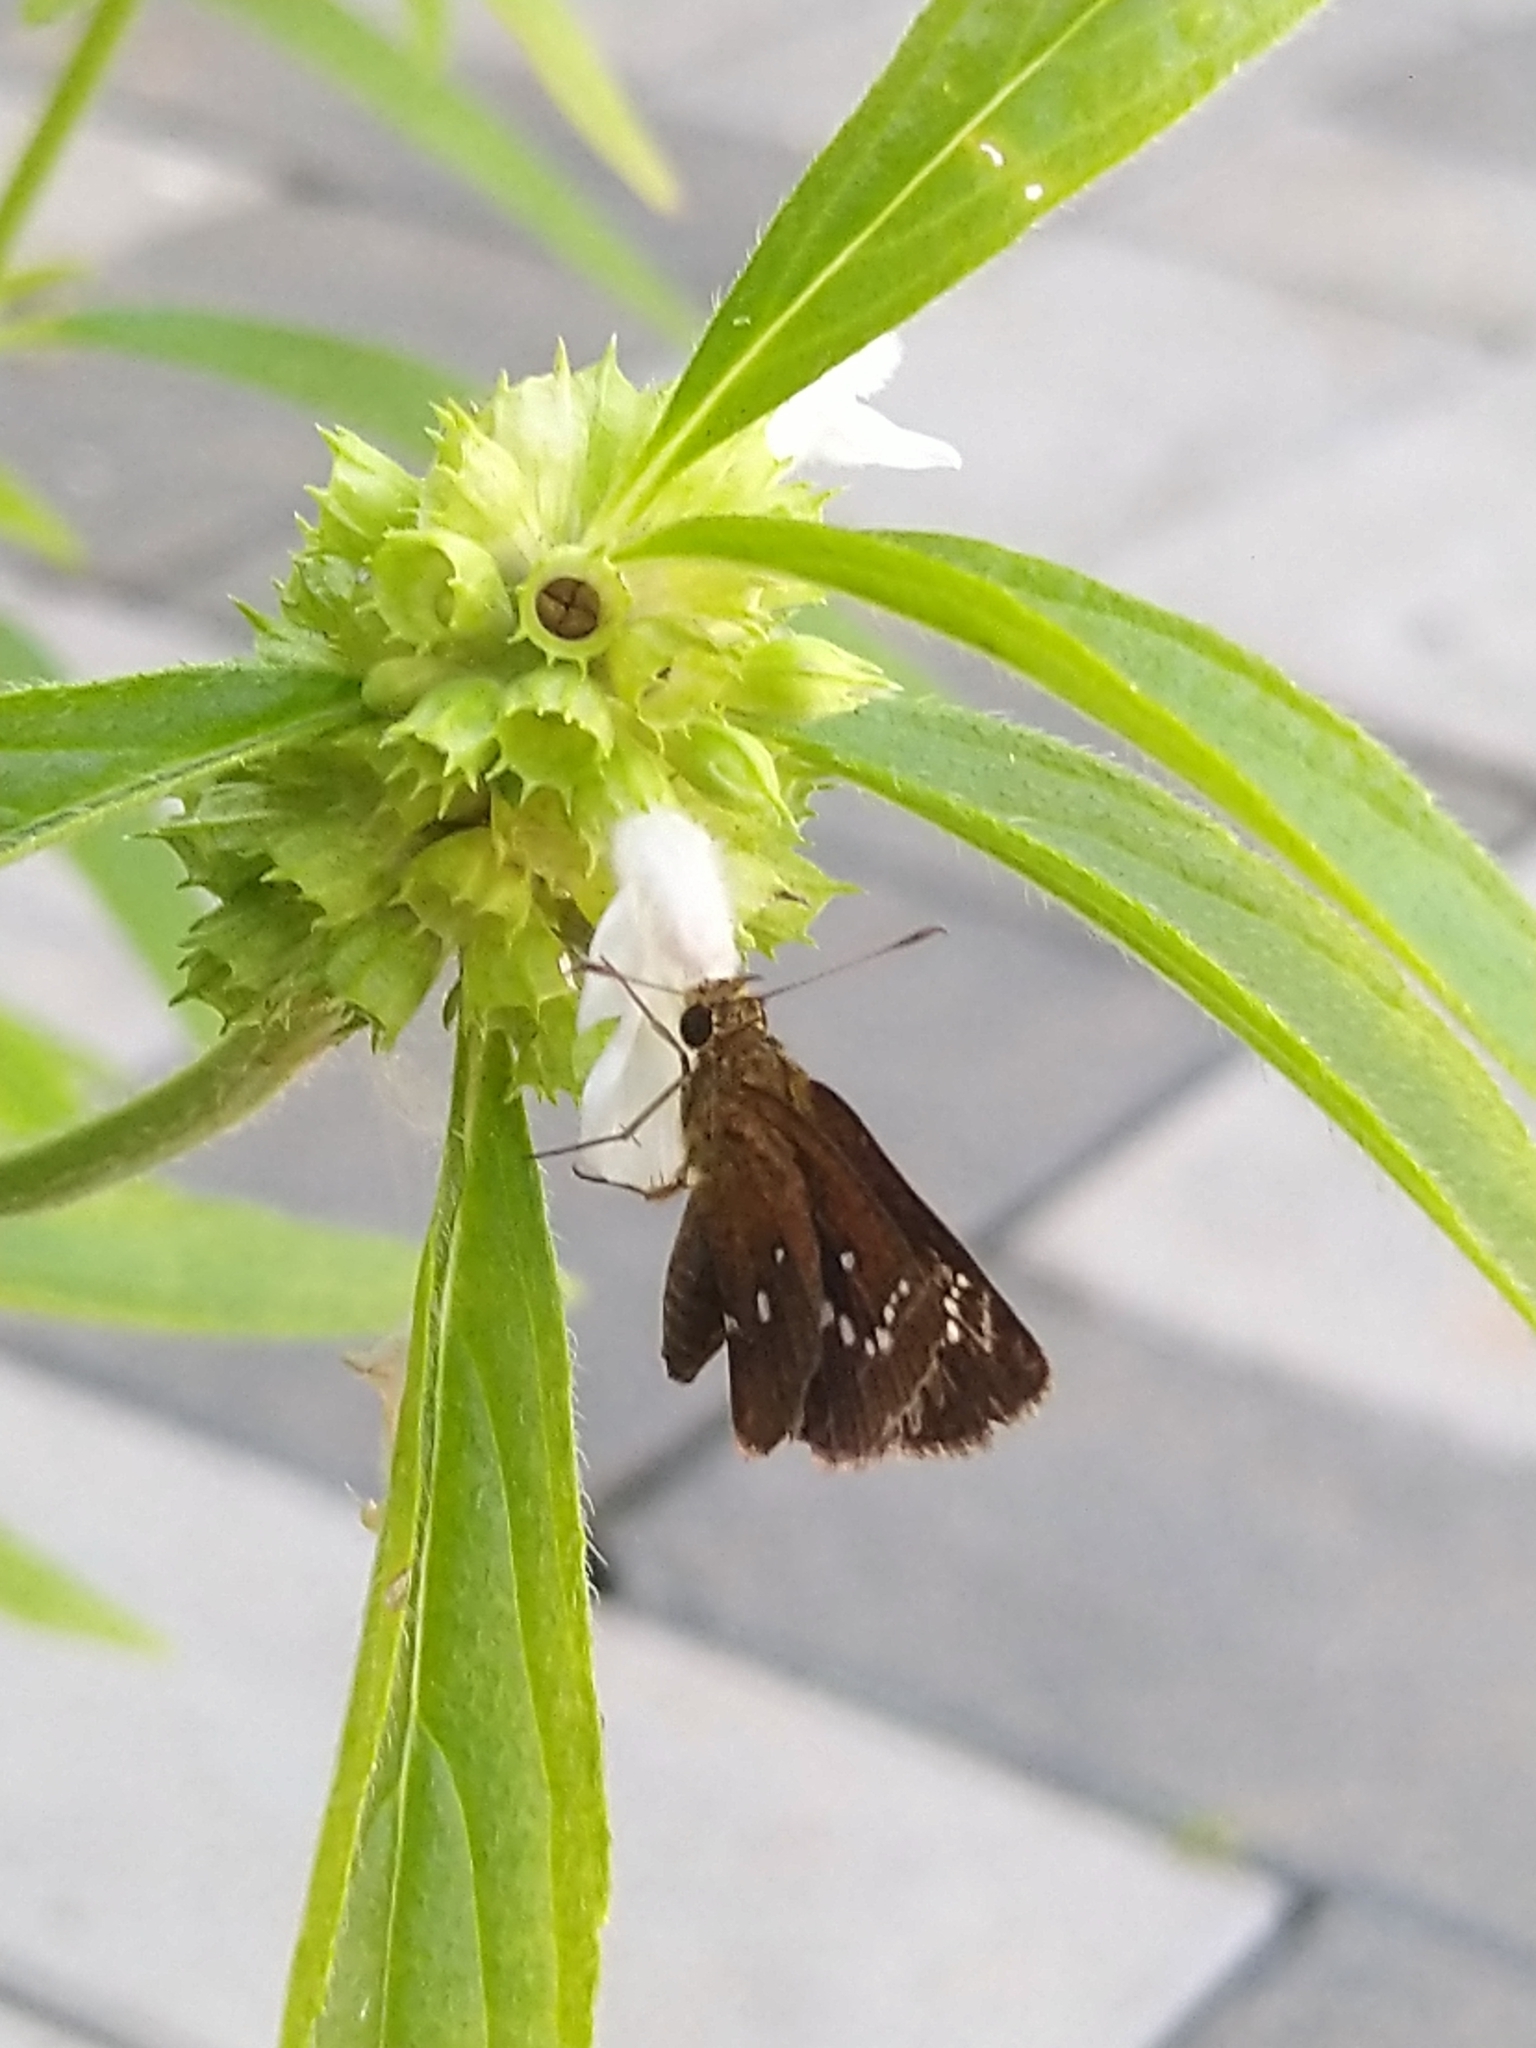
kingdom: Animalia
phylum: Arthropoda
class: Insecta
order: Lepidoptera
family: Hesperiidae
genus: Iambrix
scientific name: Iambrix salsala
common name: Chestnut bob
